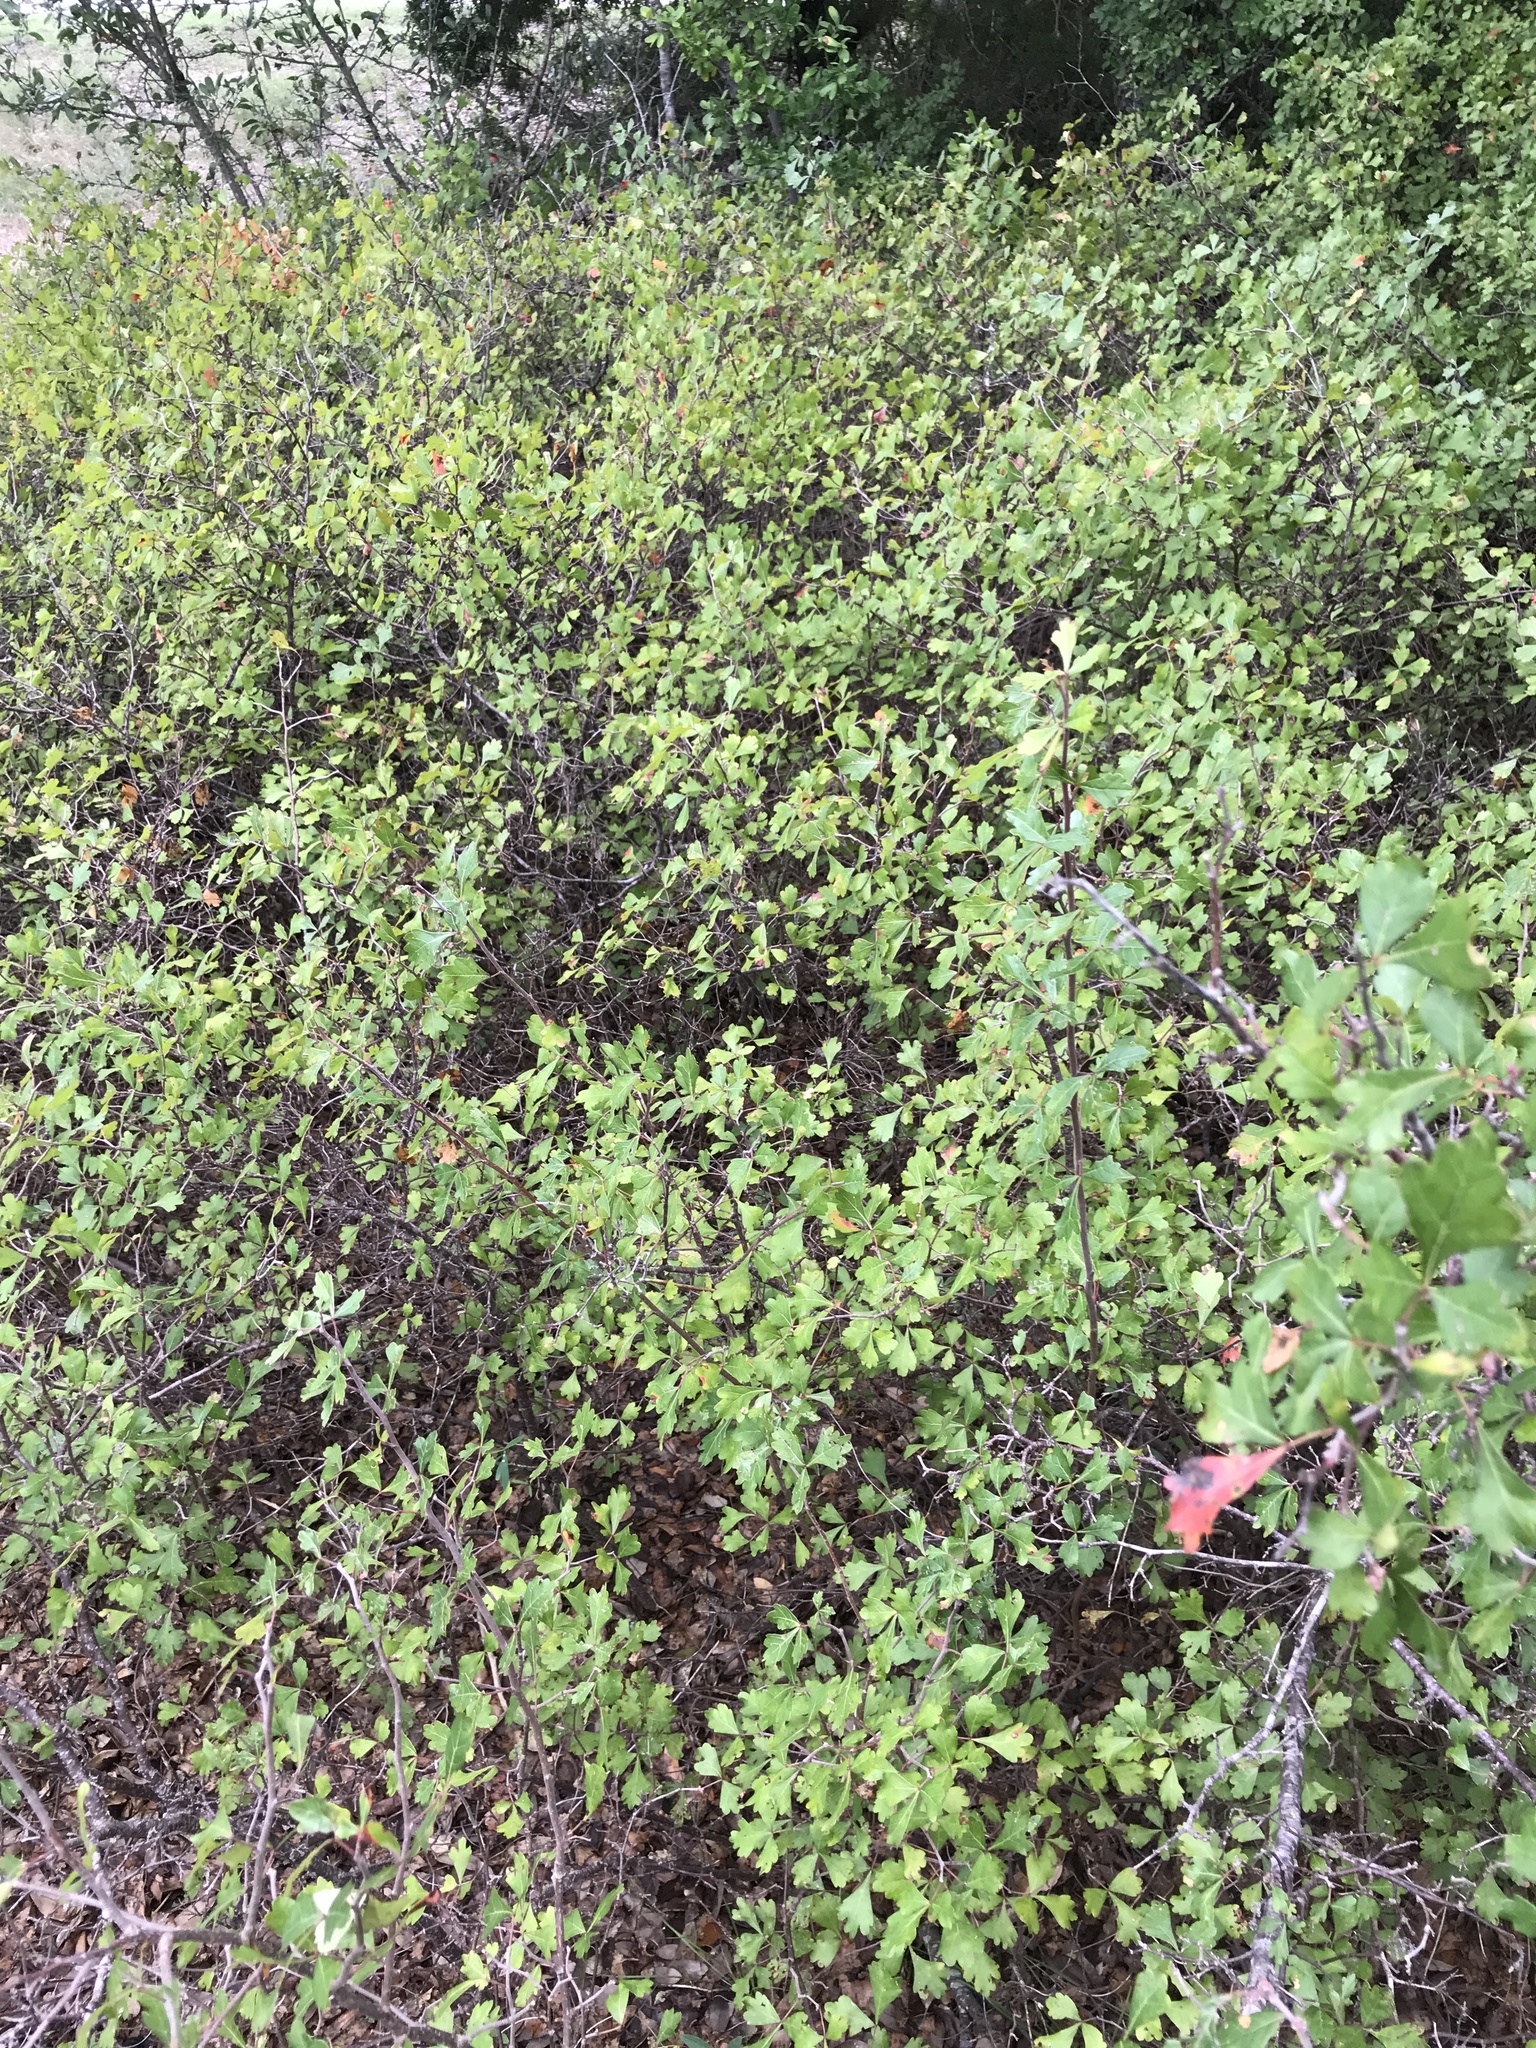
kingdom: Plantae
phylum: Tracheophyta
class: Magnoliopsida
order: Sapindales
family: Anacardiaceae
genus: Rhus
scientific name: Rhus aromatica
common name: Aromatic sumac
